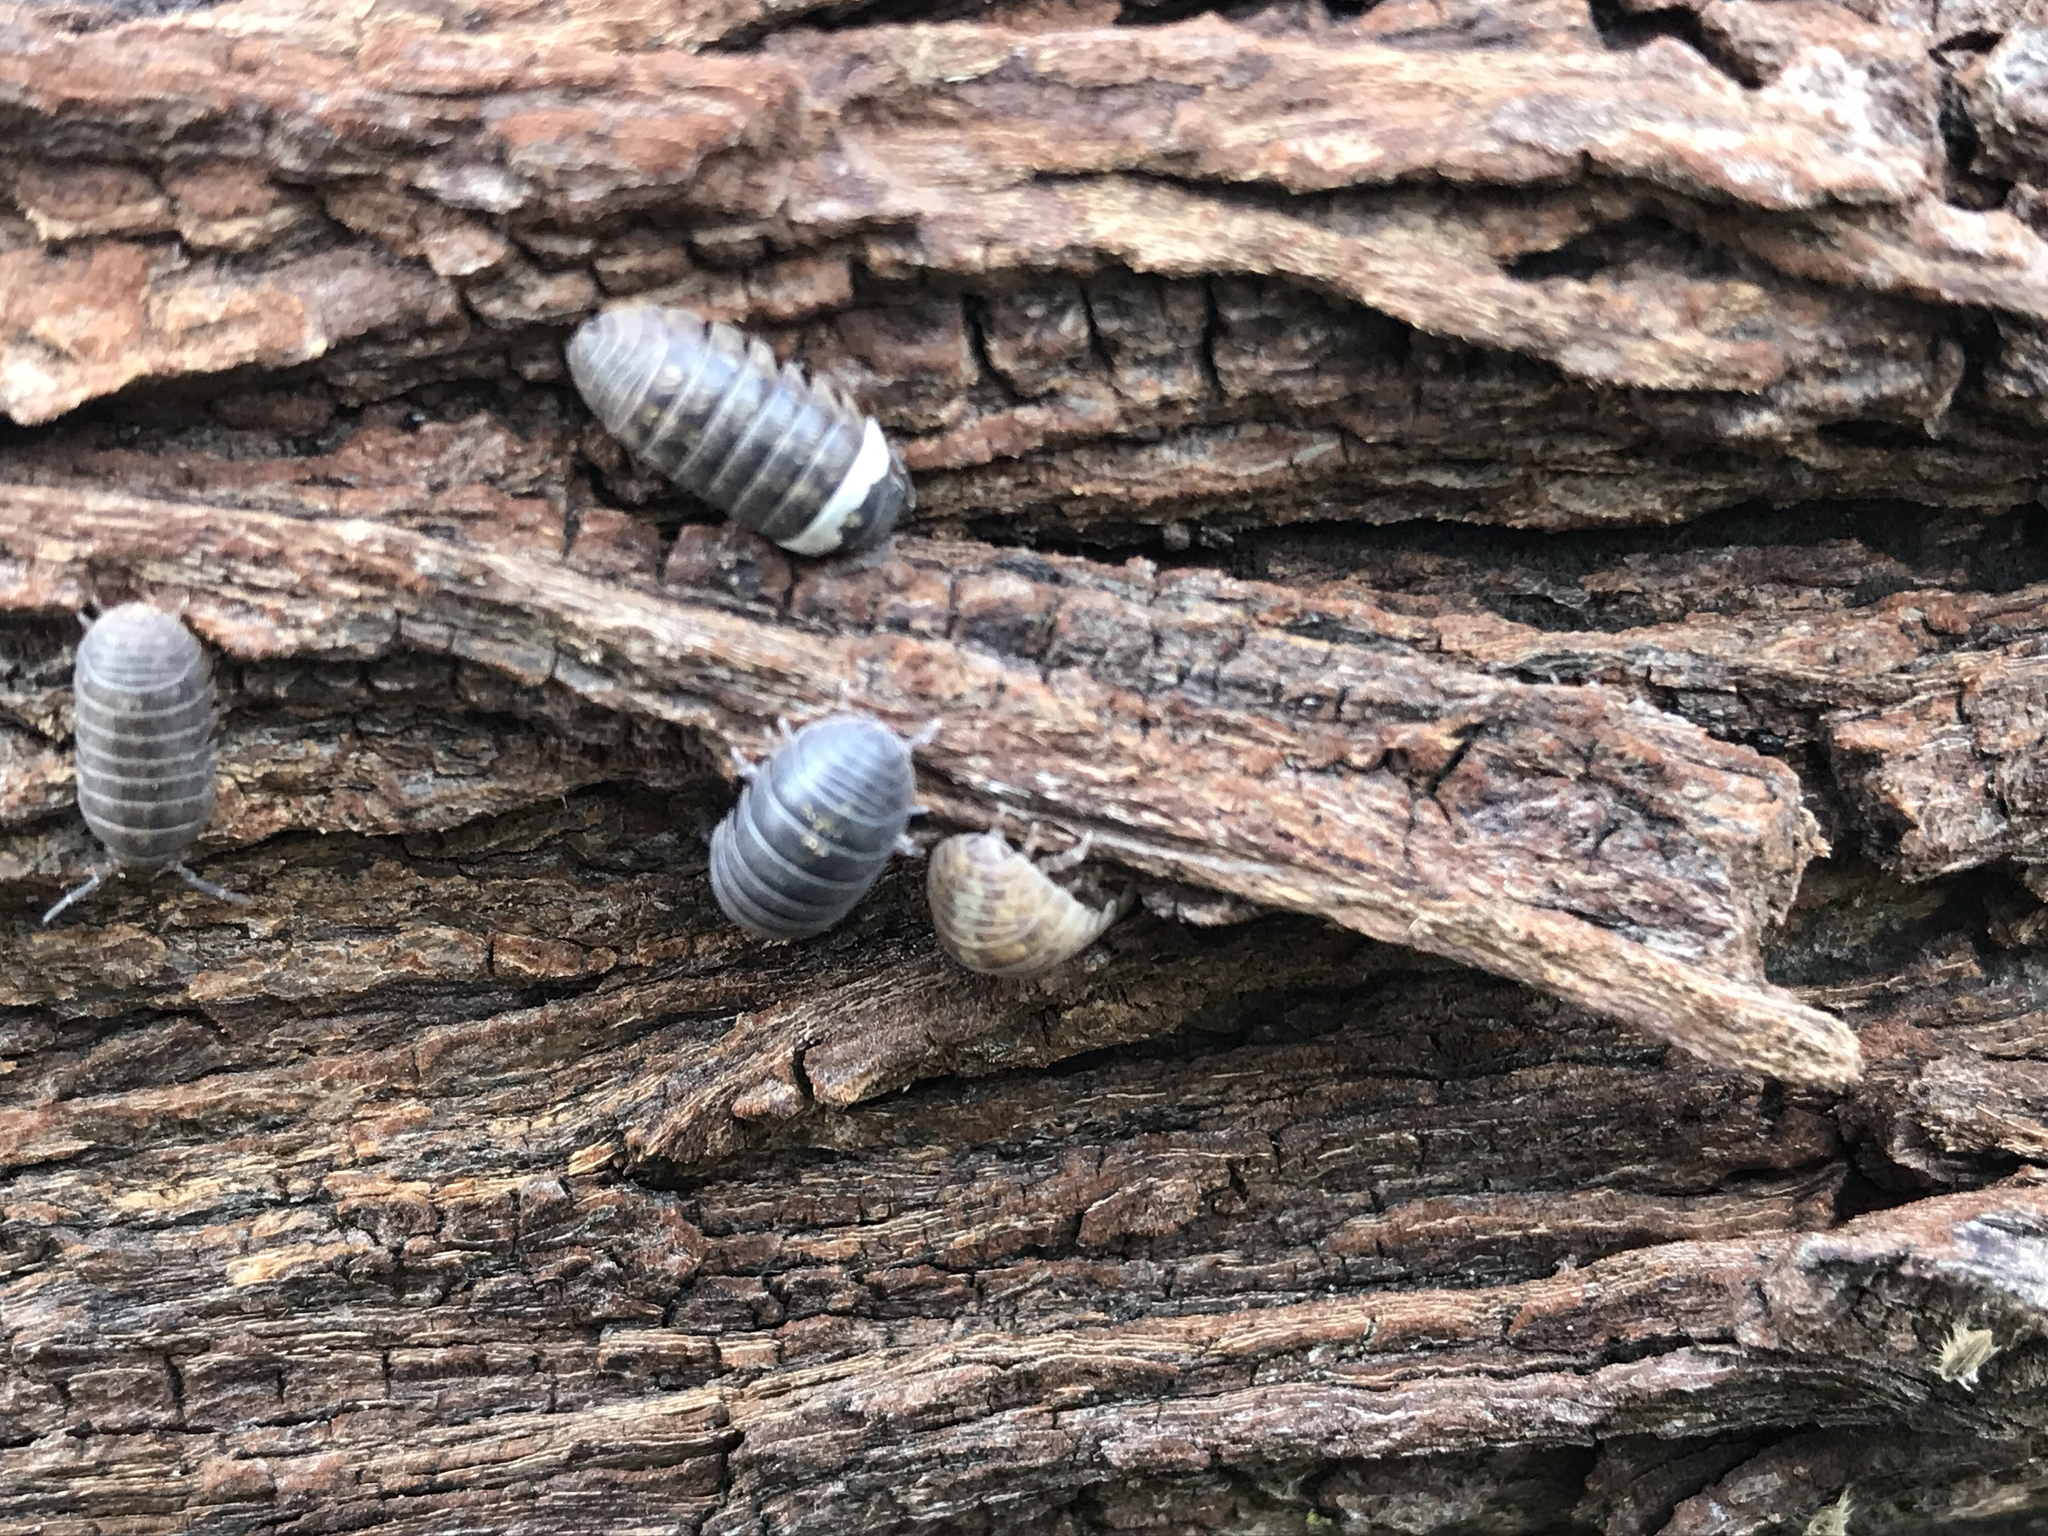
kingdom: Animalia
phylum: Arthropoda
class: Malacostraca
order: Isopoda
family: Armadillidiidae
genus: Armadillidium
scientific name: Armadillidium vulgare
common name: Common pill woodlouse
